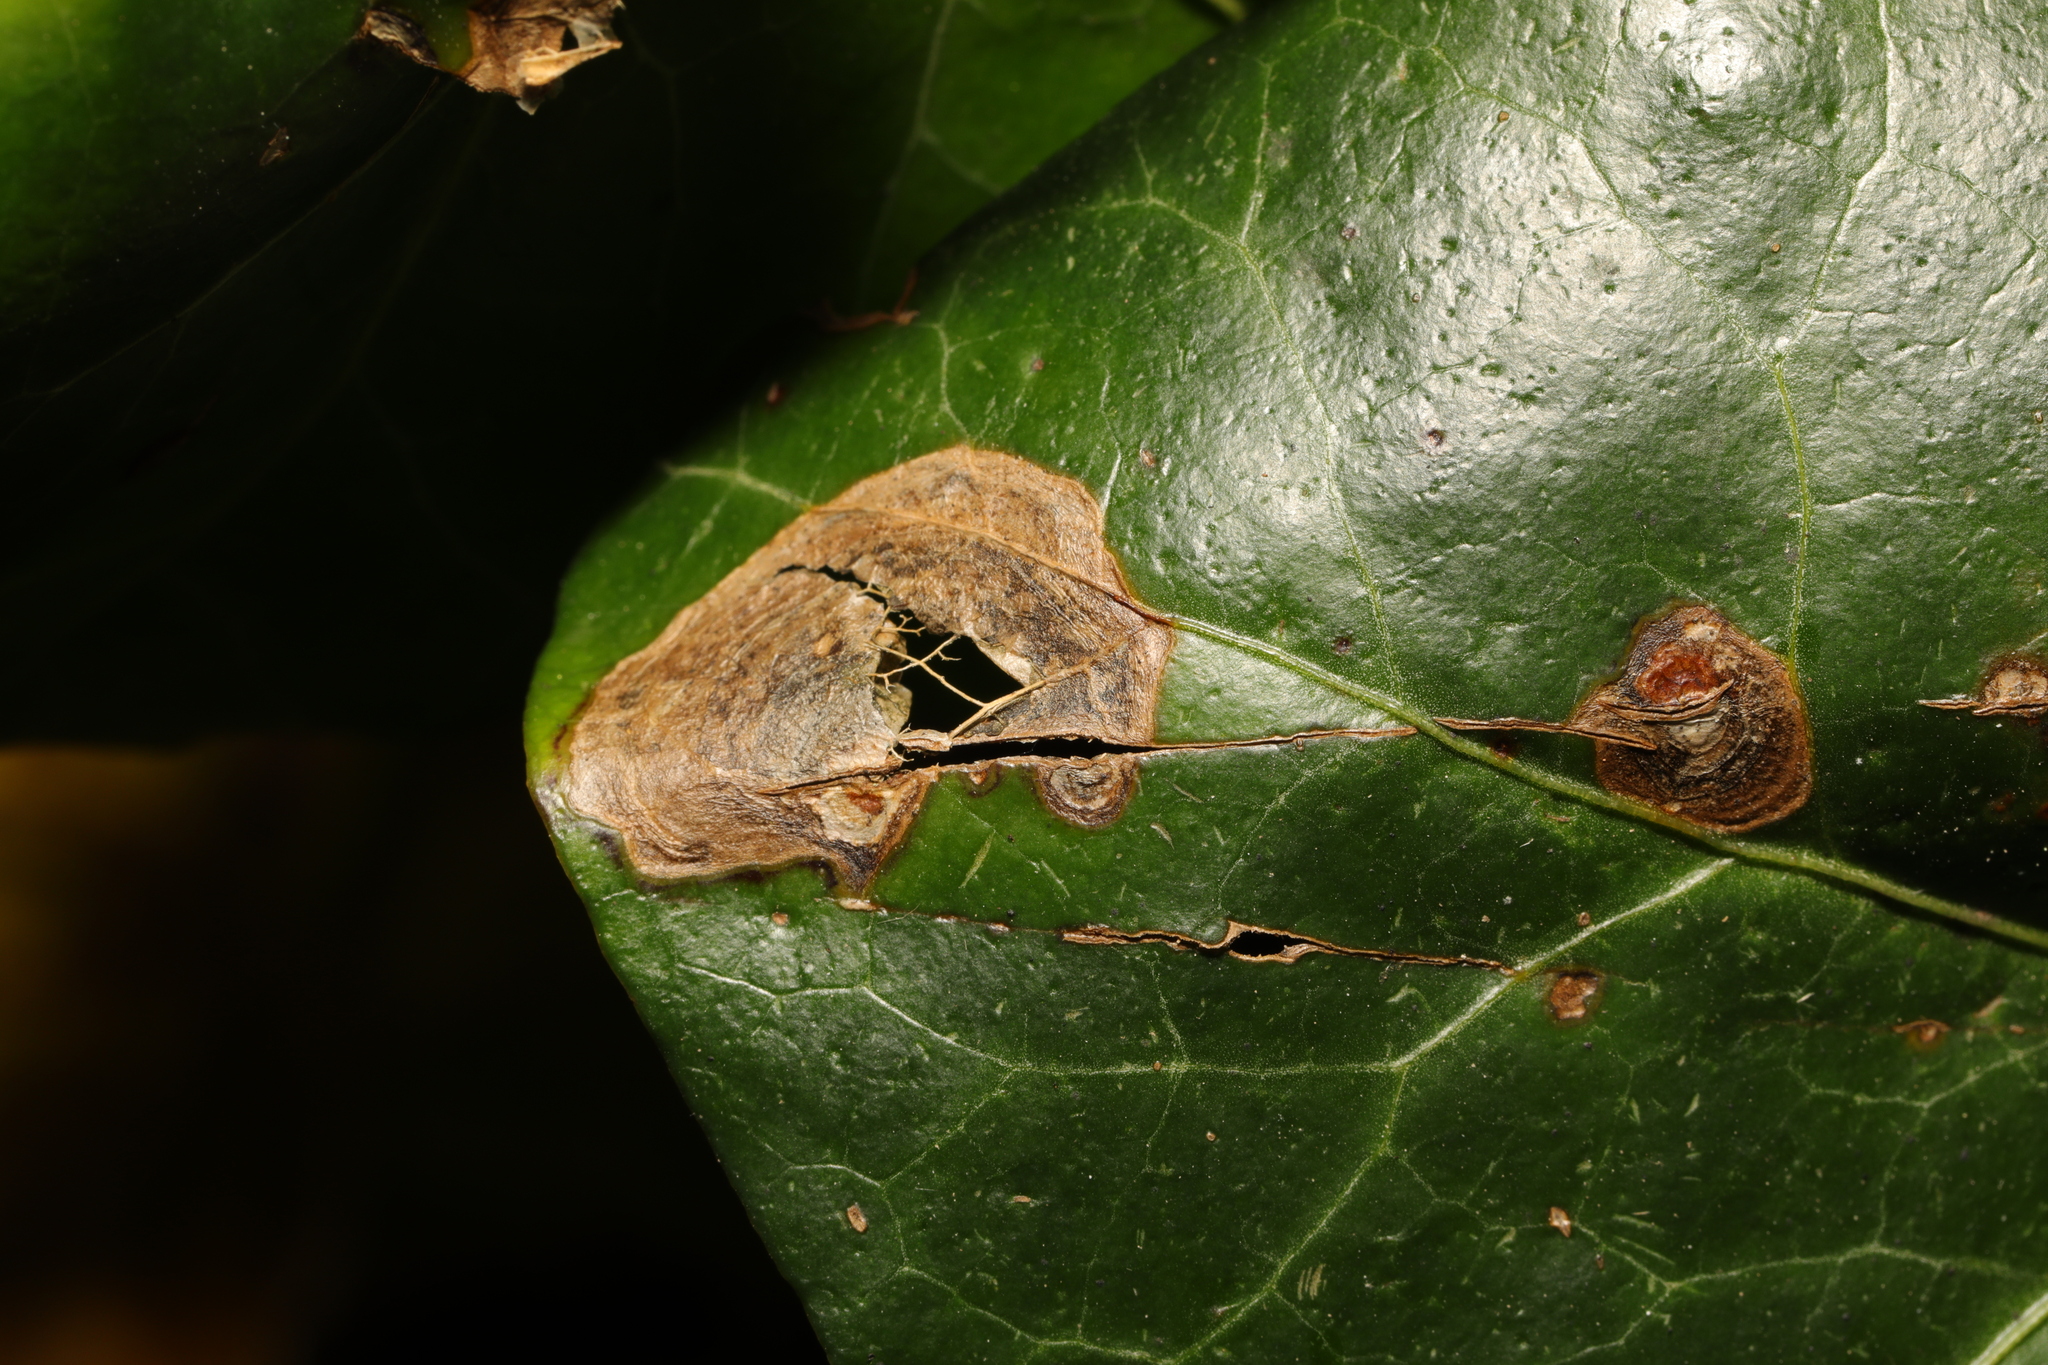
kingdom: Fungi
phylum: Ascomycota
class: Dothideomycetes
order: Pleosporales
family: Didymellaceae
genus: Boeremia
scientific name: Boeremia hedericola
